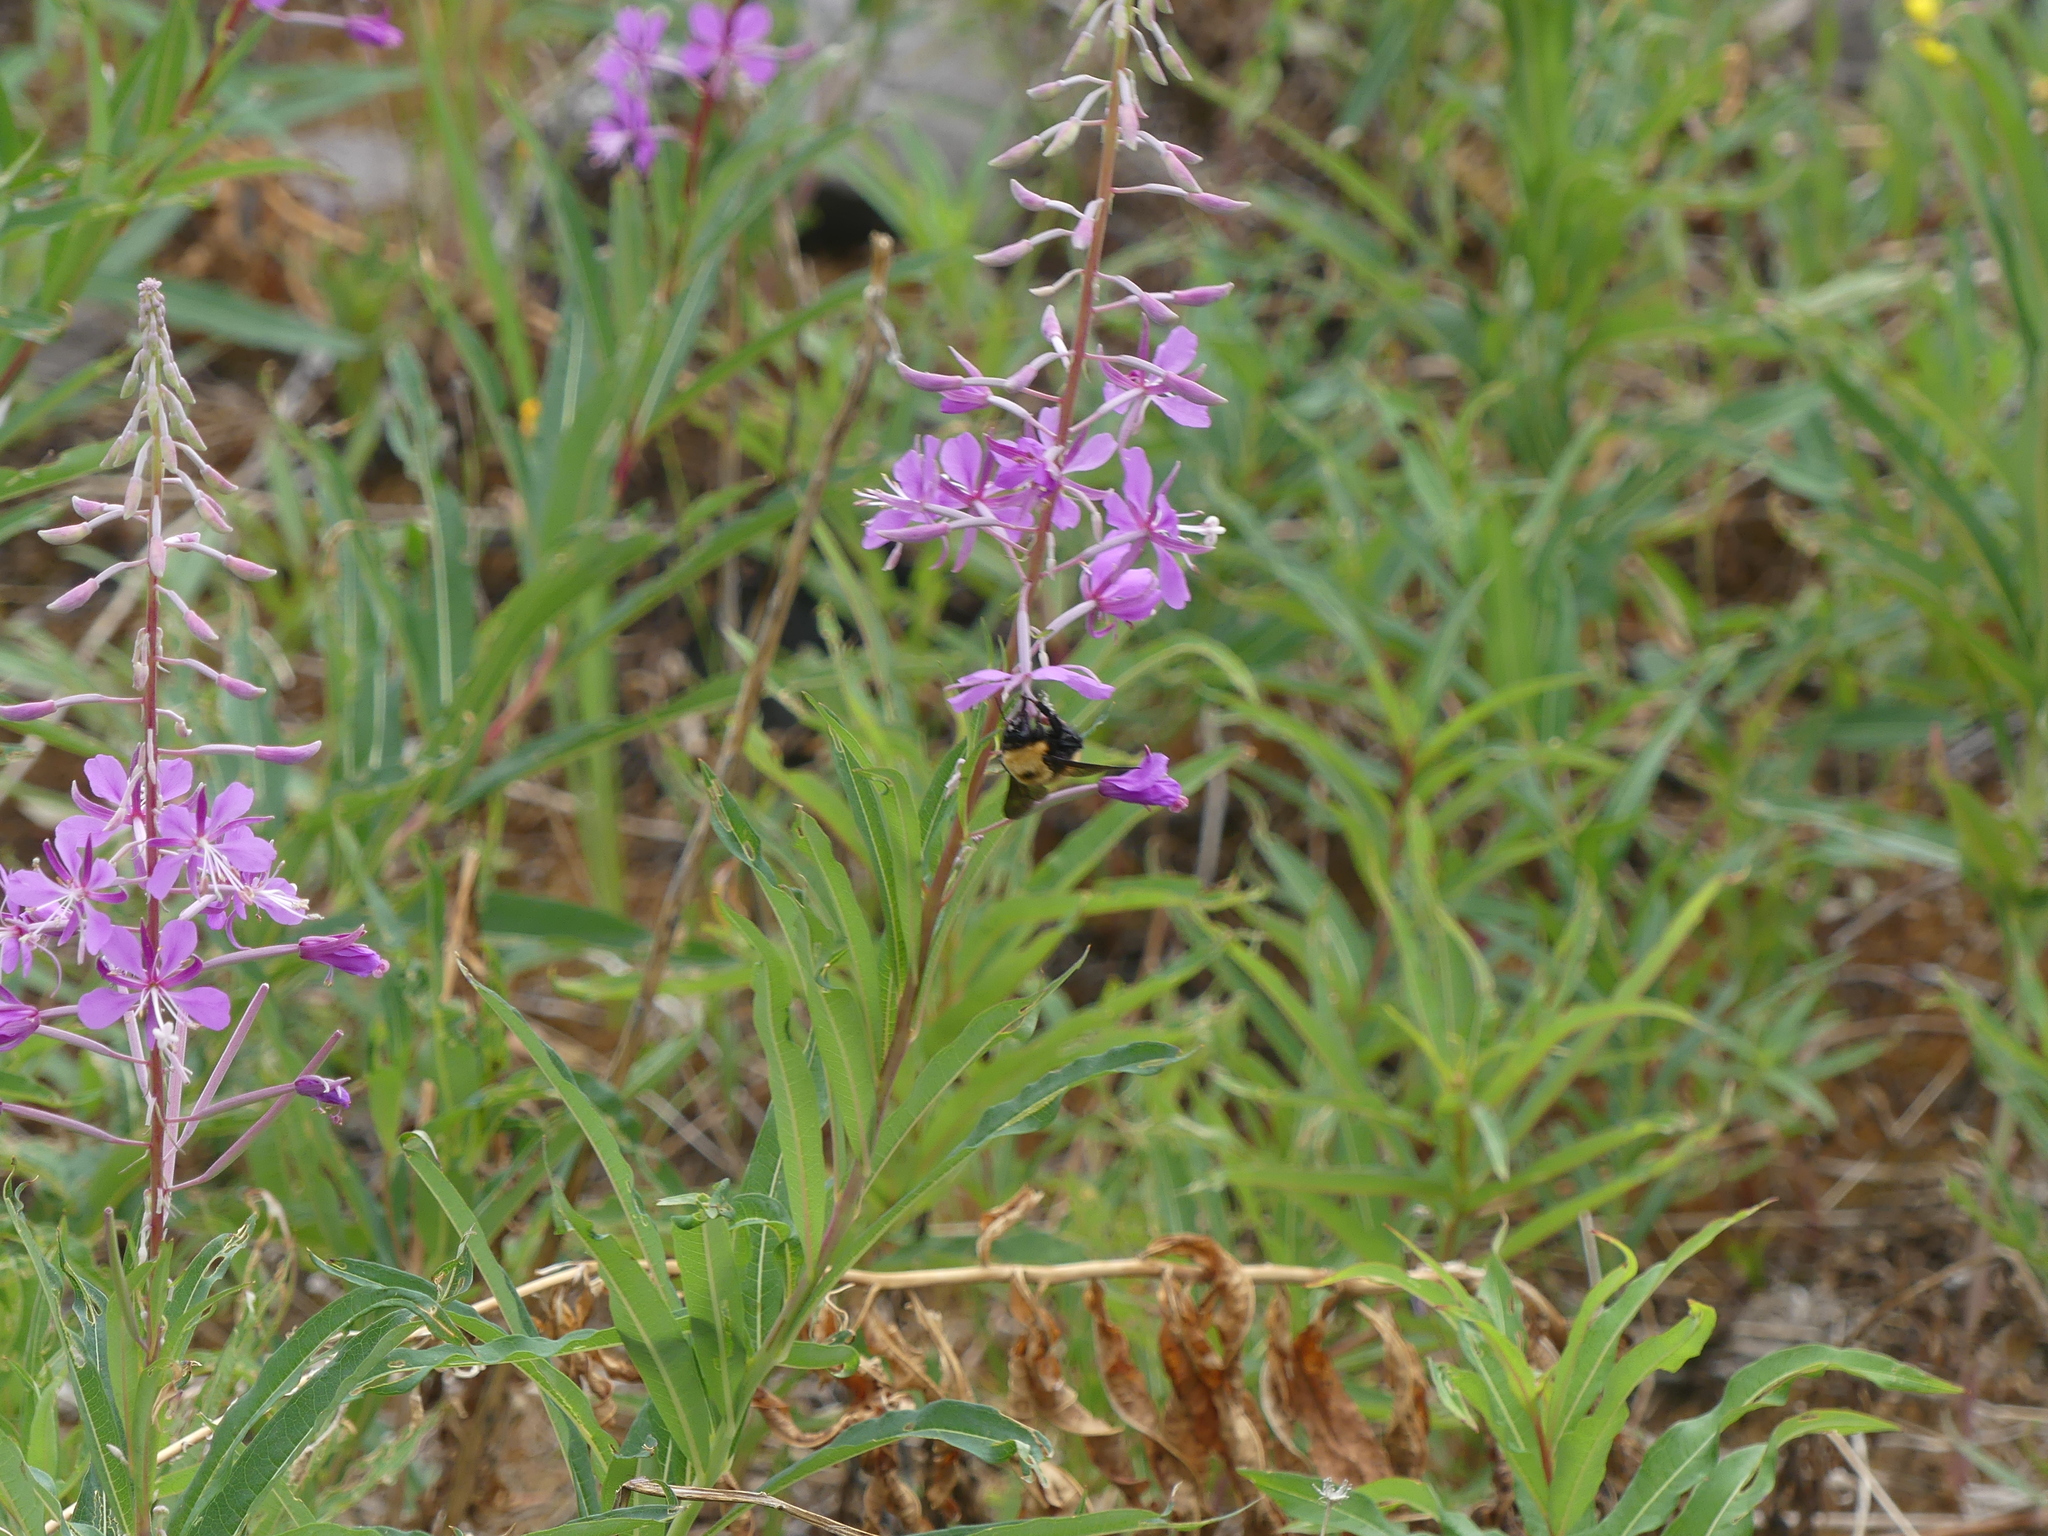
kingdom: Animalia
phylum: Arthropoda
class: Insecta
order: Hymenoptera
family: Apidae
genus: Bombus
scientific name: Bombus nevadensis
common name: Nevada bumble bee
